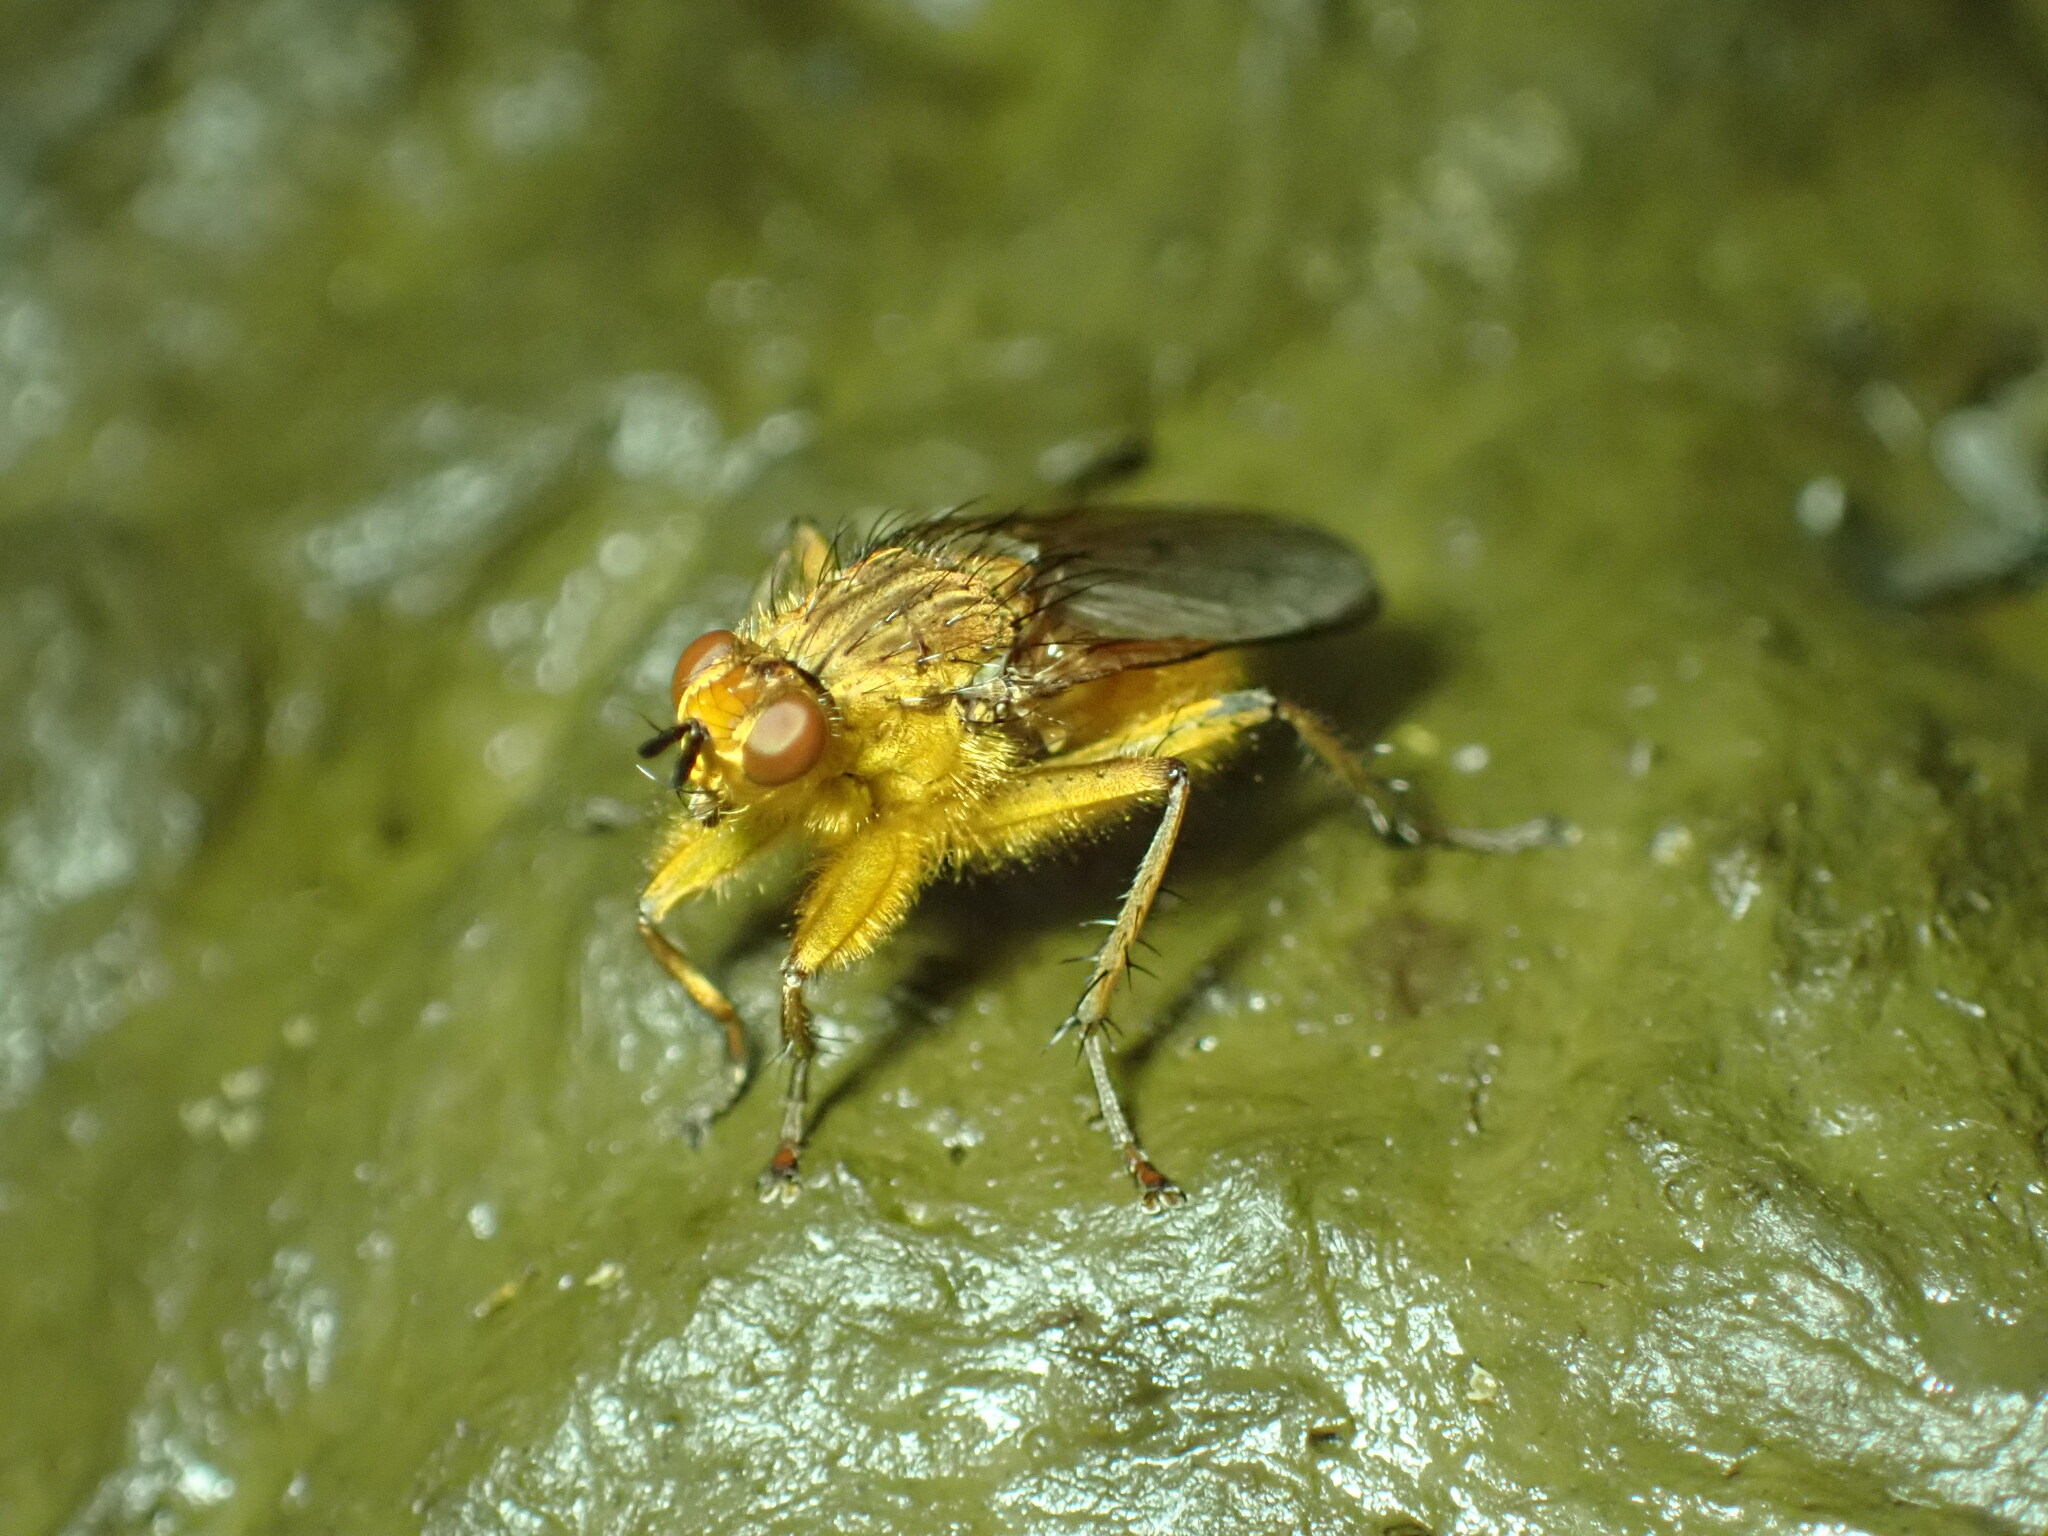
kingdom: Animalia
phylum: Arthropoda
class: Insecta
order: Diptera
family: Scathophagidae
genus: Scathophaga
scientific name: Scathophaga stercoraria
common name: Yellow dung fly
